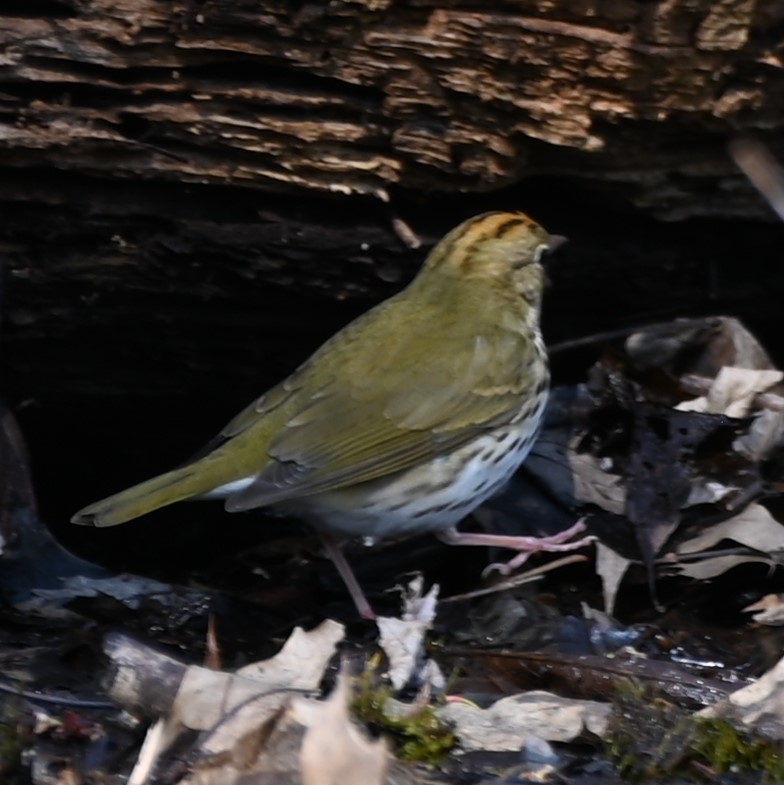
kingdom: Animalia
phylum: Chordata
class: Aves
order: Passeriformes
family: Parulidae
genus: Seiurus
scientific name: Seiurus aurocapilla
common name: Ovenbird
